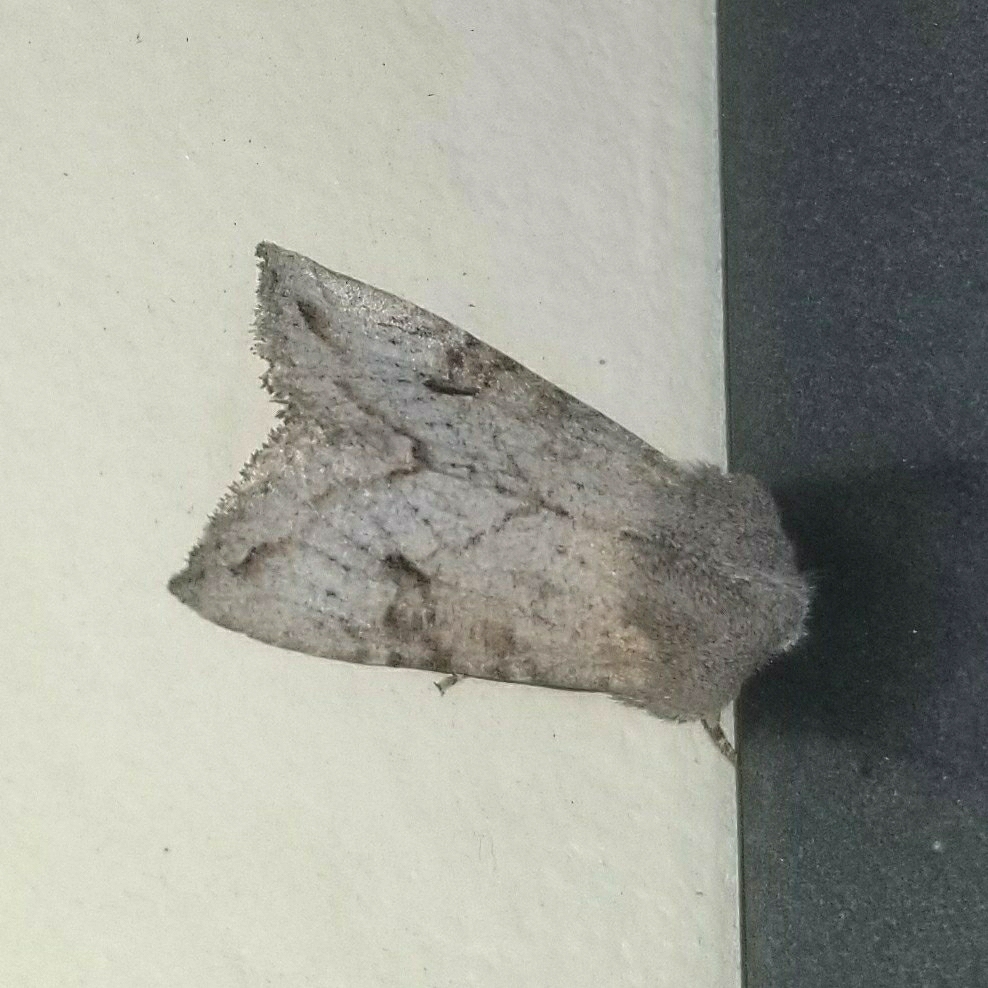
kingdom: Animalia
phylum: Arthropoda
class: Insecta
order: Lepidoptera
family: Noctuidae
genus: Orthosia
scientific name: Orthosia erythrolita
